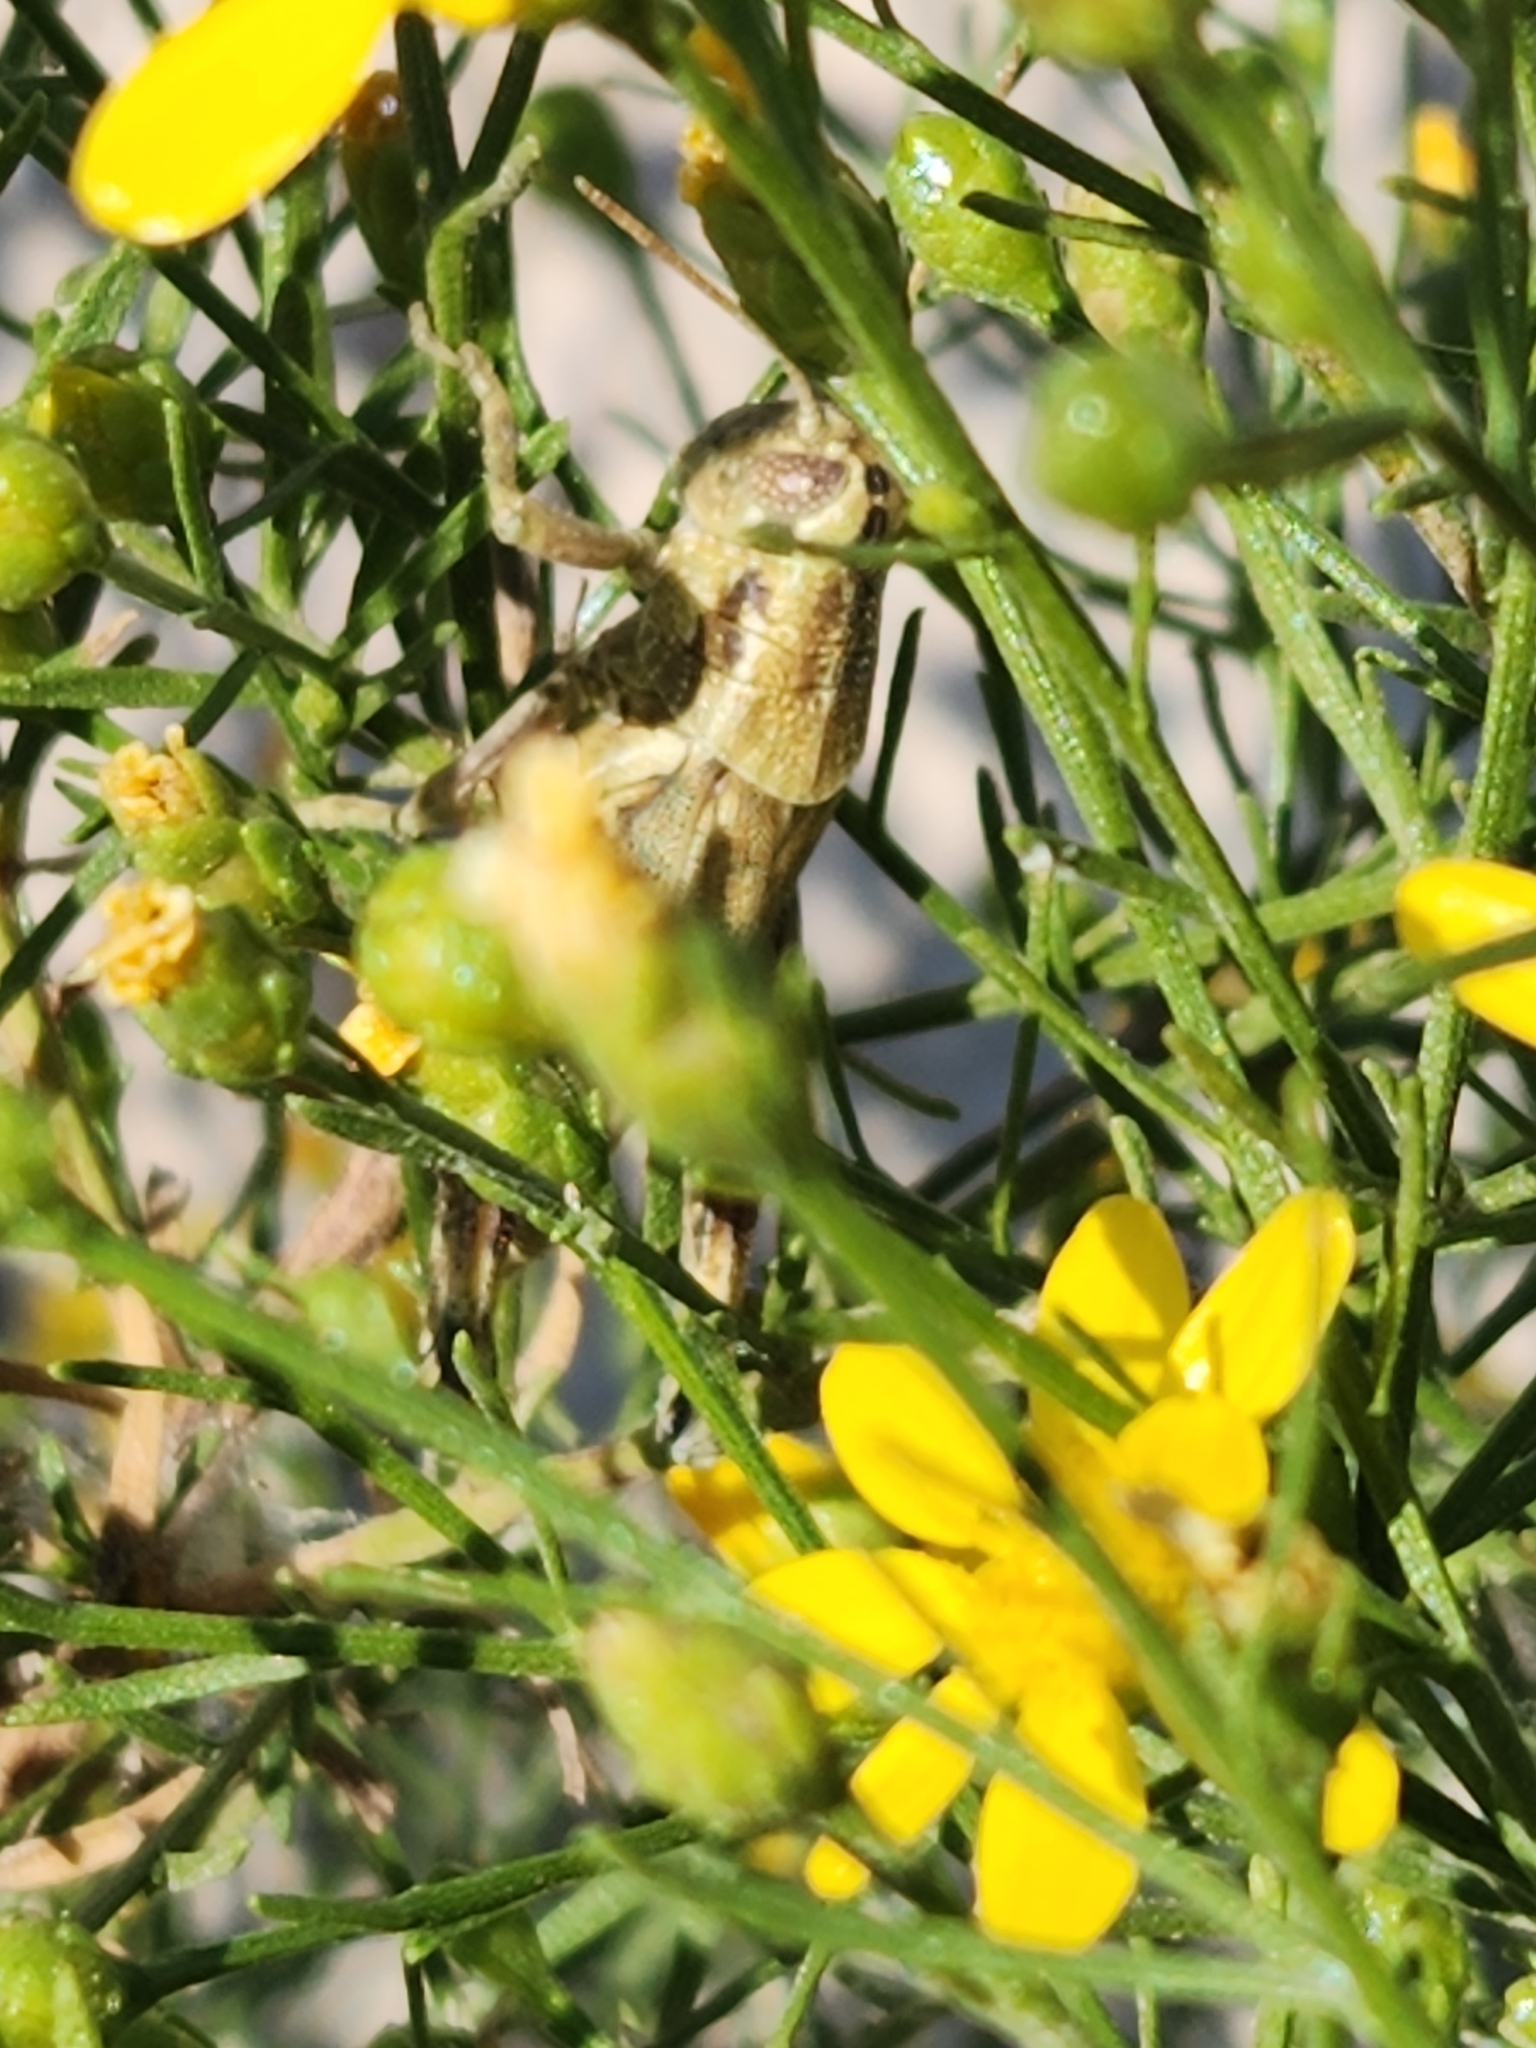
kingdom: Animalia
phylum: Arthropoda
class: Insecta
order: Orthoptera
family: Acrididae
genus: Campylacantha
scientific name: Campylacantha olivacea
